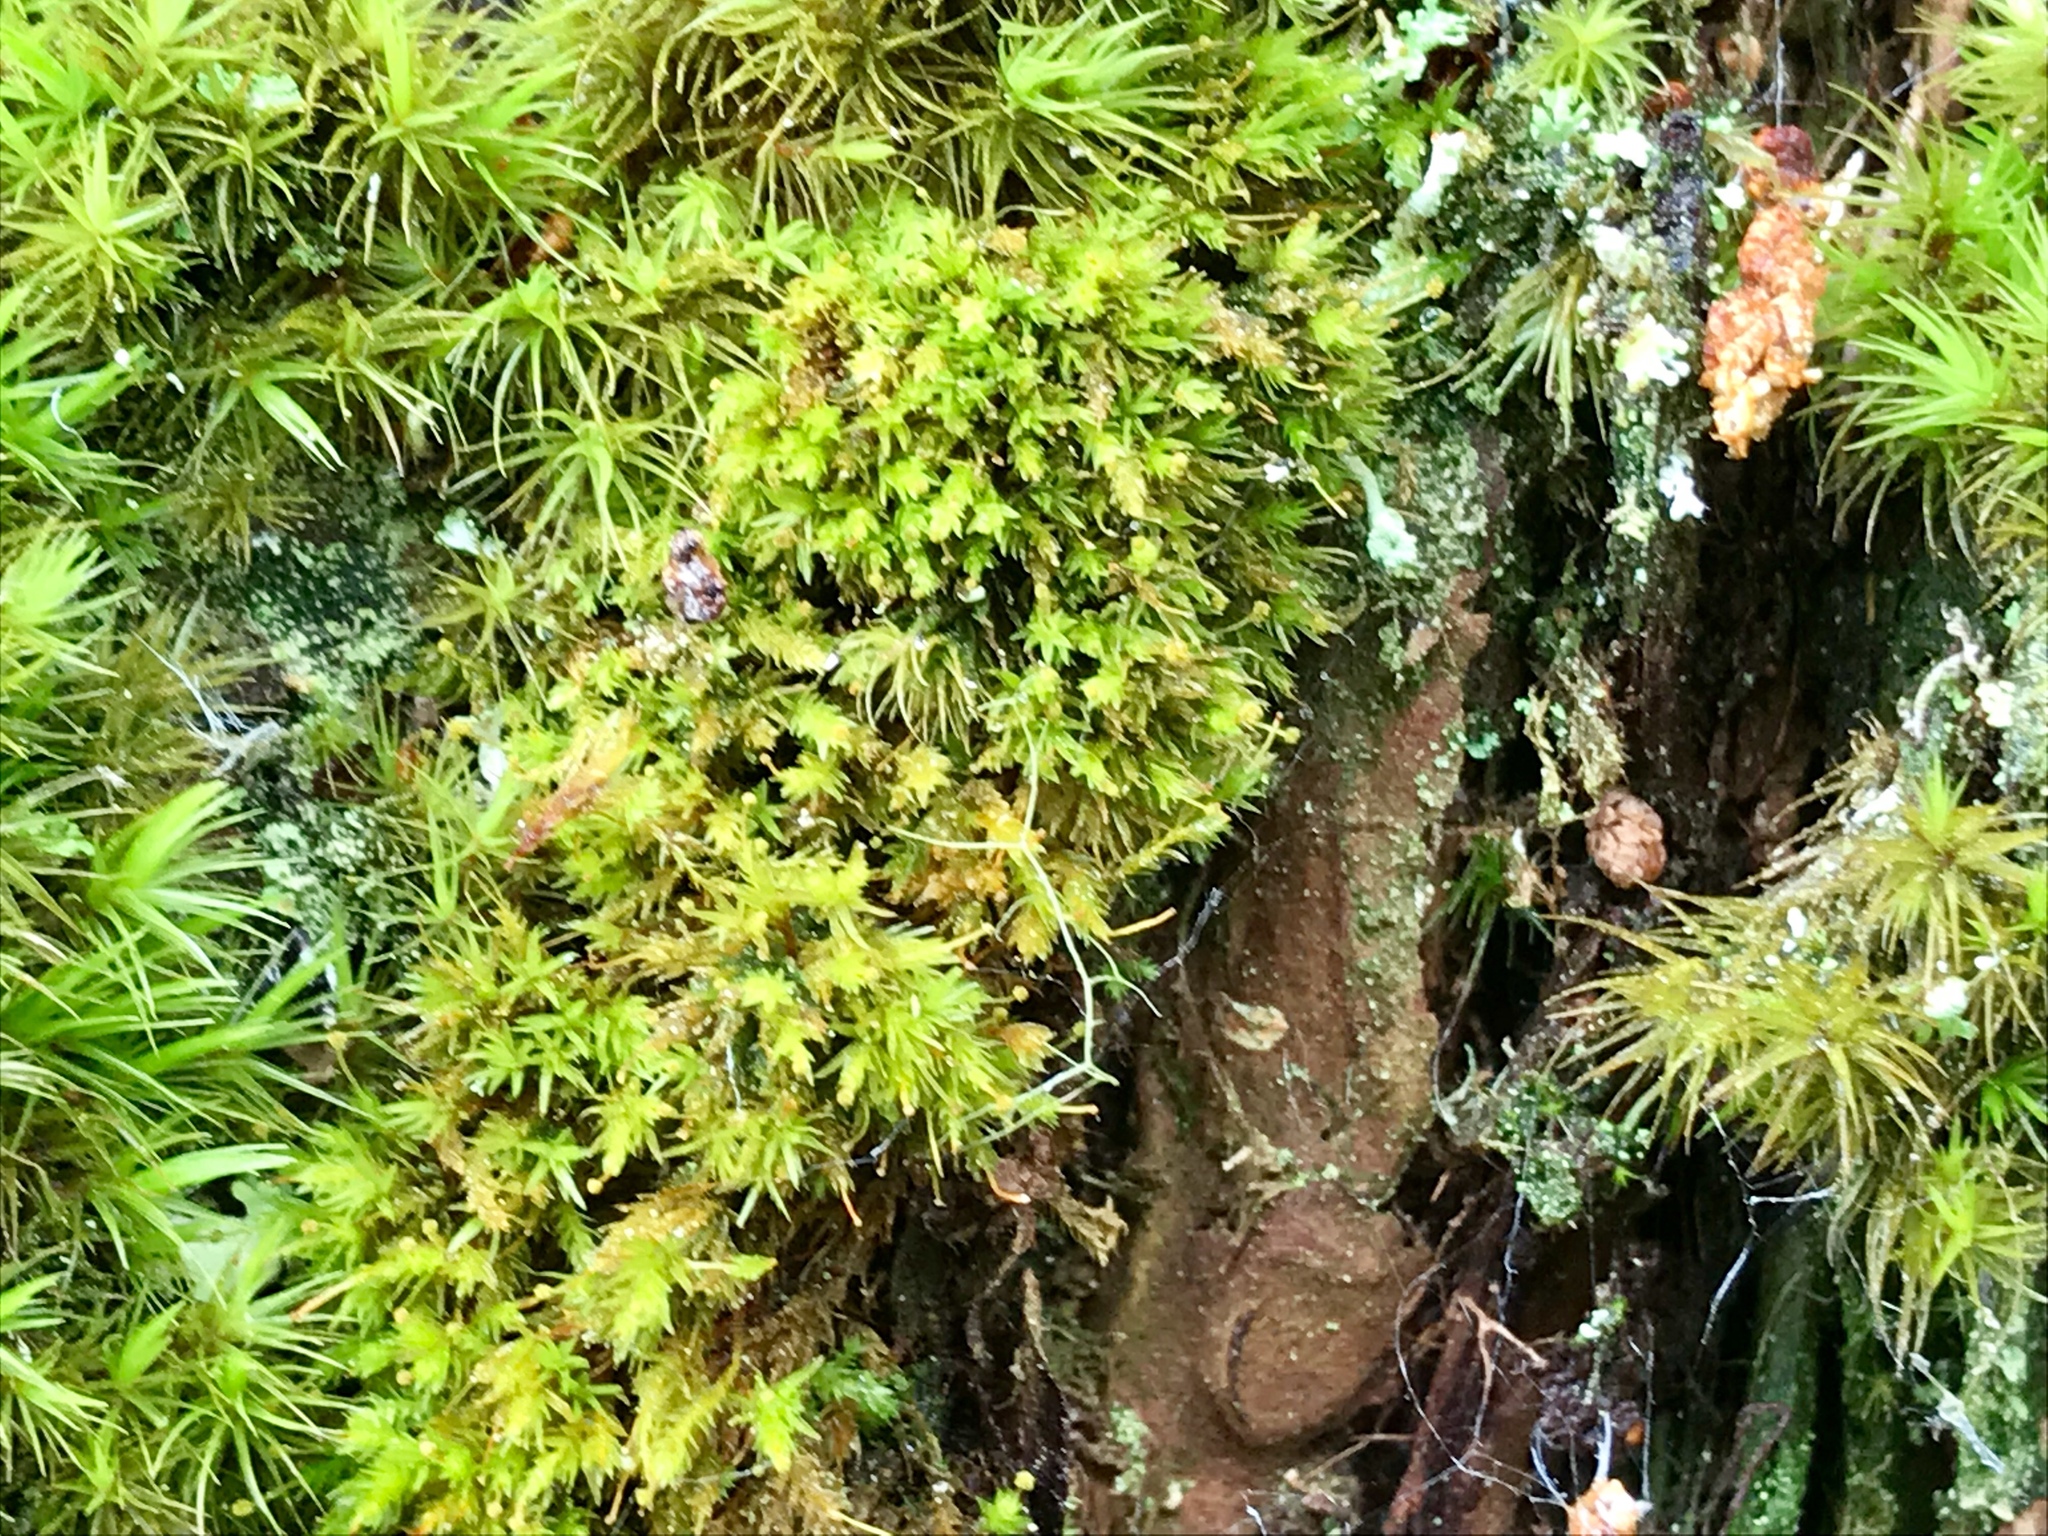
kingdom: Plantae
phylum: Bryophyta
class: Bryopsida
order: Aulacomniales
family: Aulacomniaceae
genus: Aulacomnium
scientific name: Aulacomnium androgynum
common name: Little groove moss
